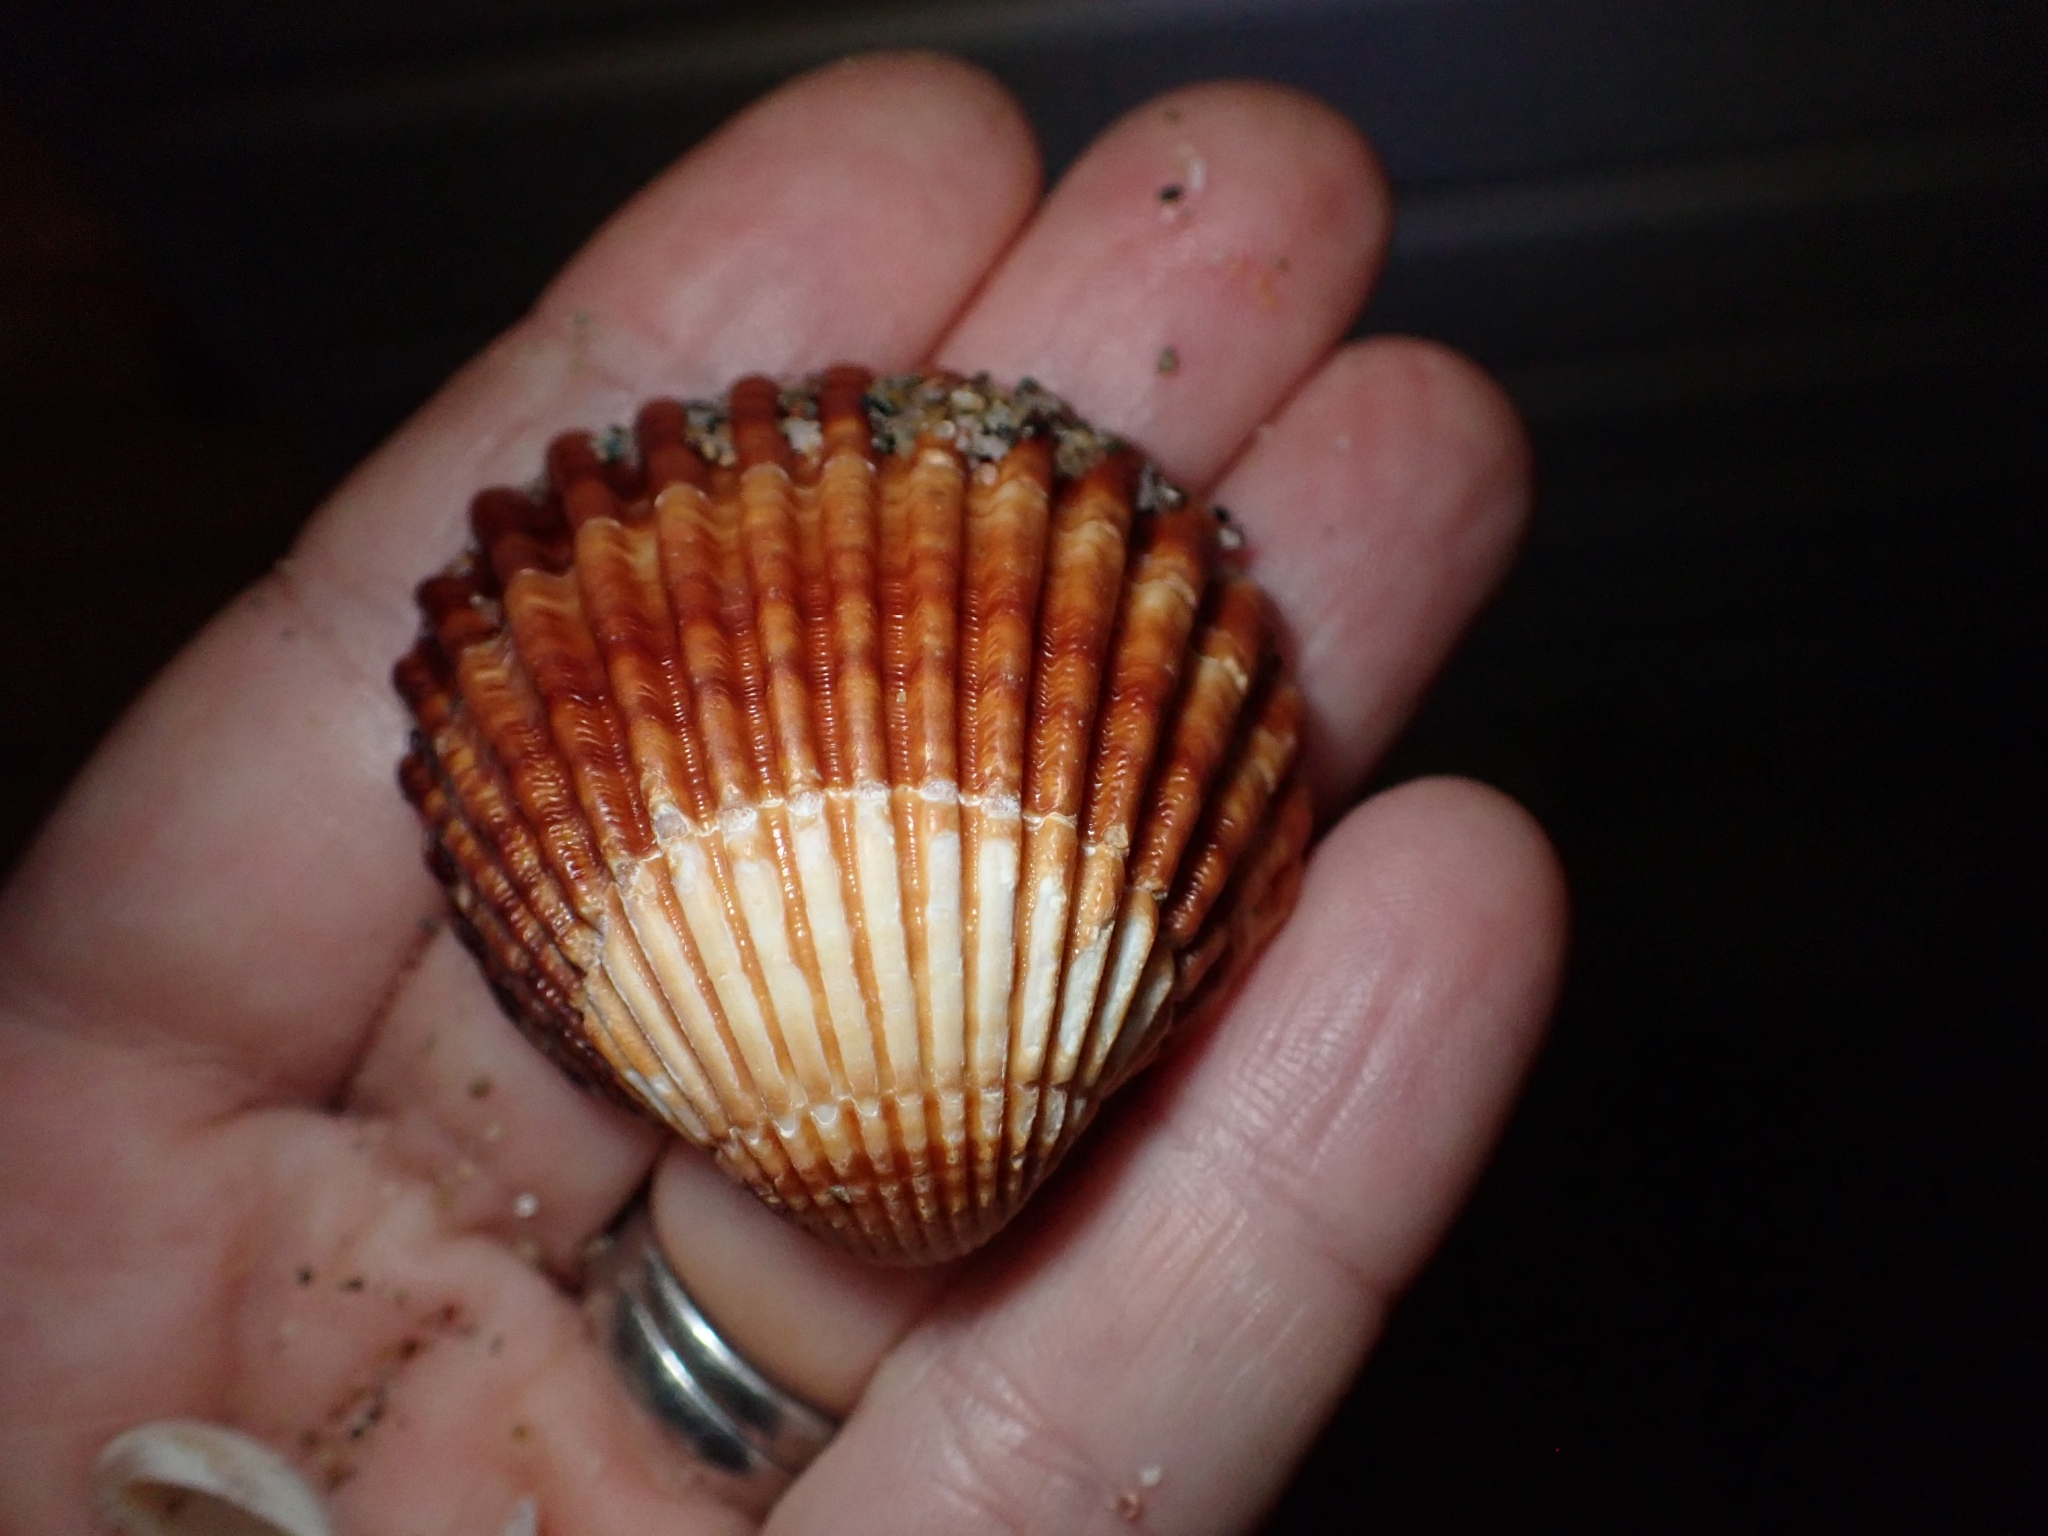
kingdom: Animalia
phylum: Mollusca
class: Bivalvia
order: Cardiida
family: Cardiidae
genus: Acanthocardia
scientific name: Acanthocardia tuberculata
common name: Rough cockle
